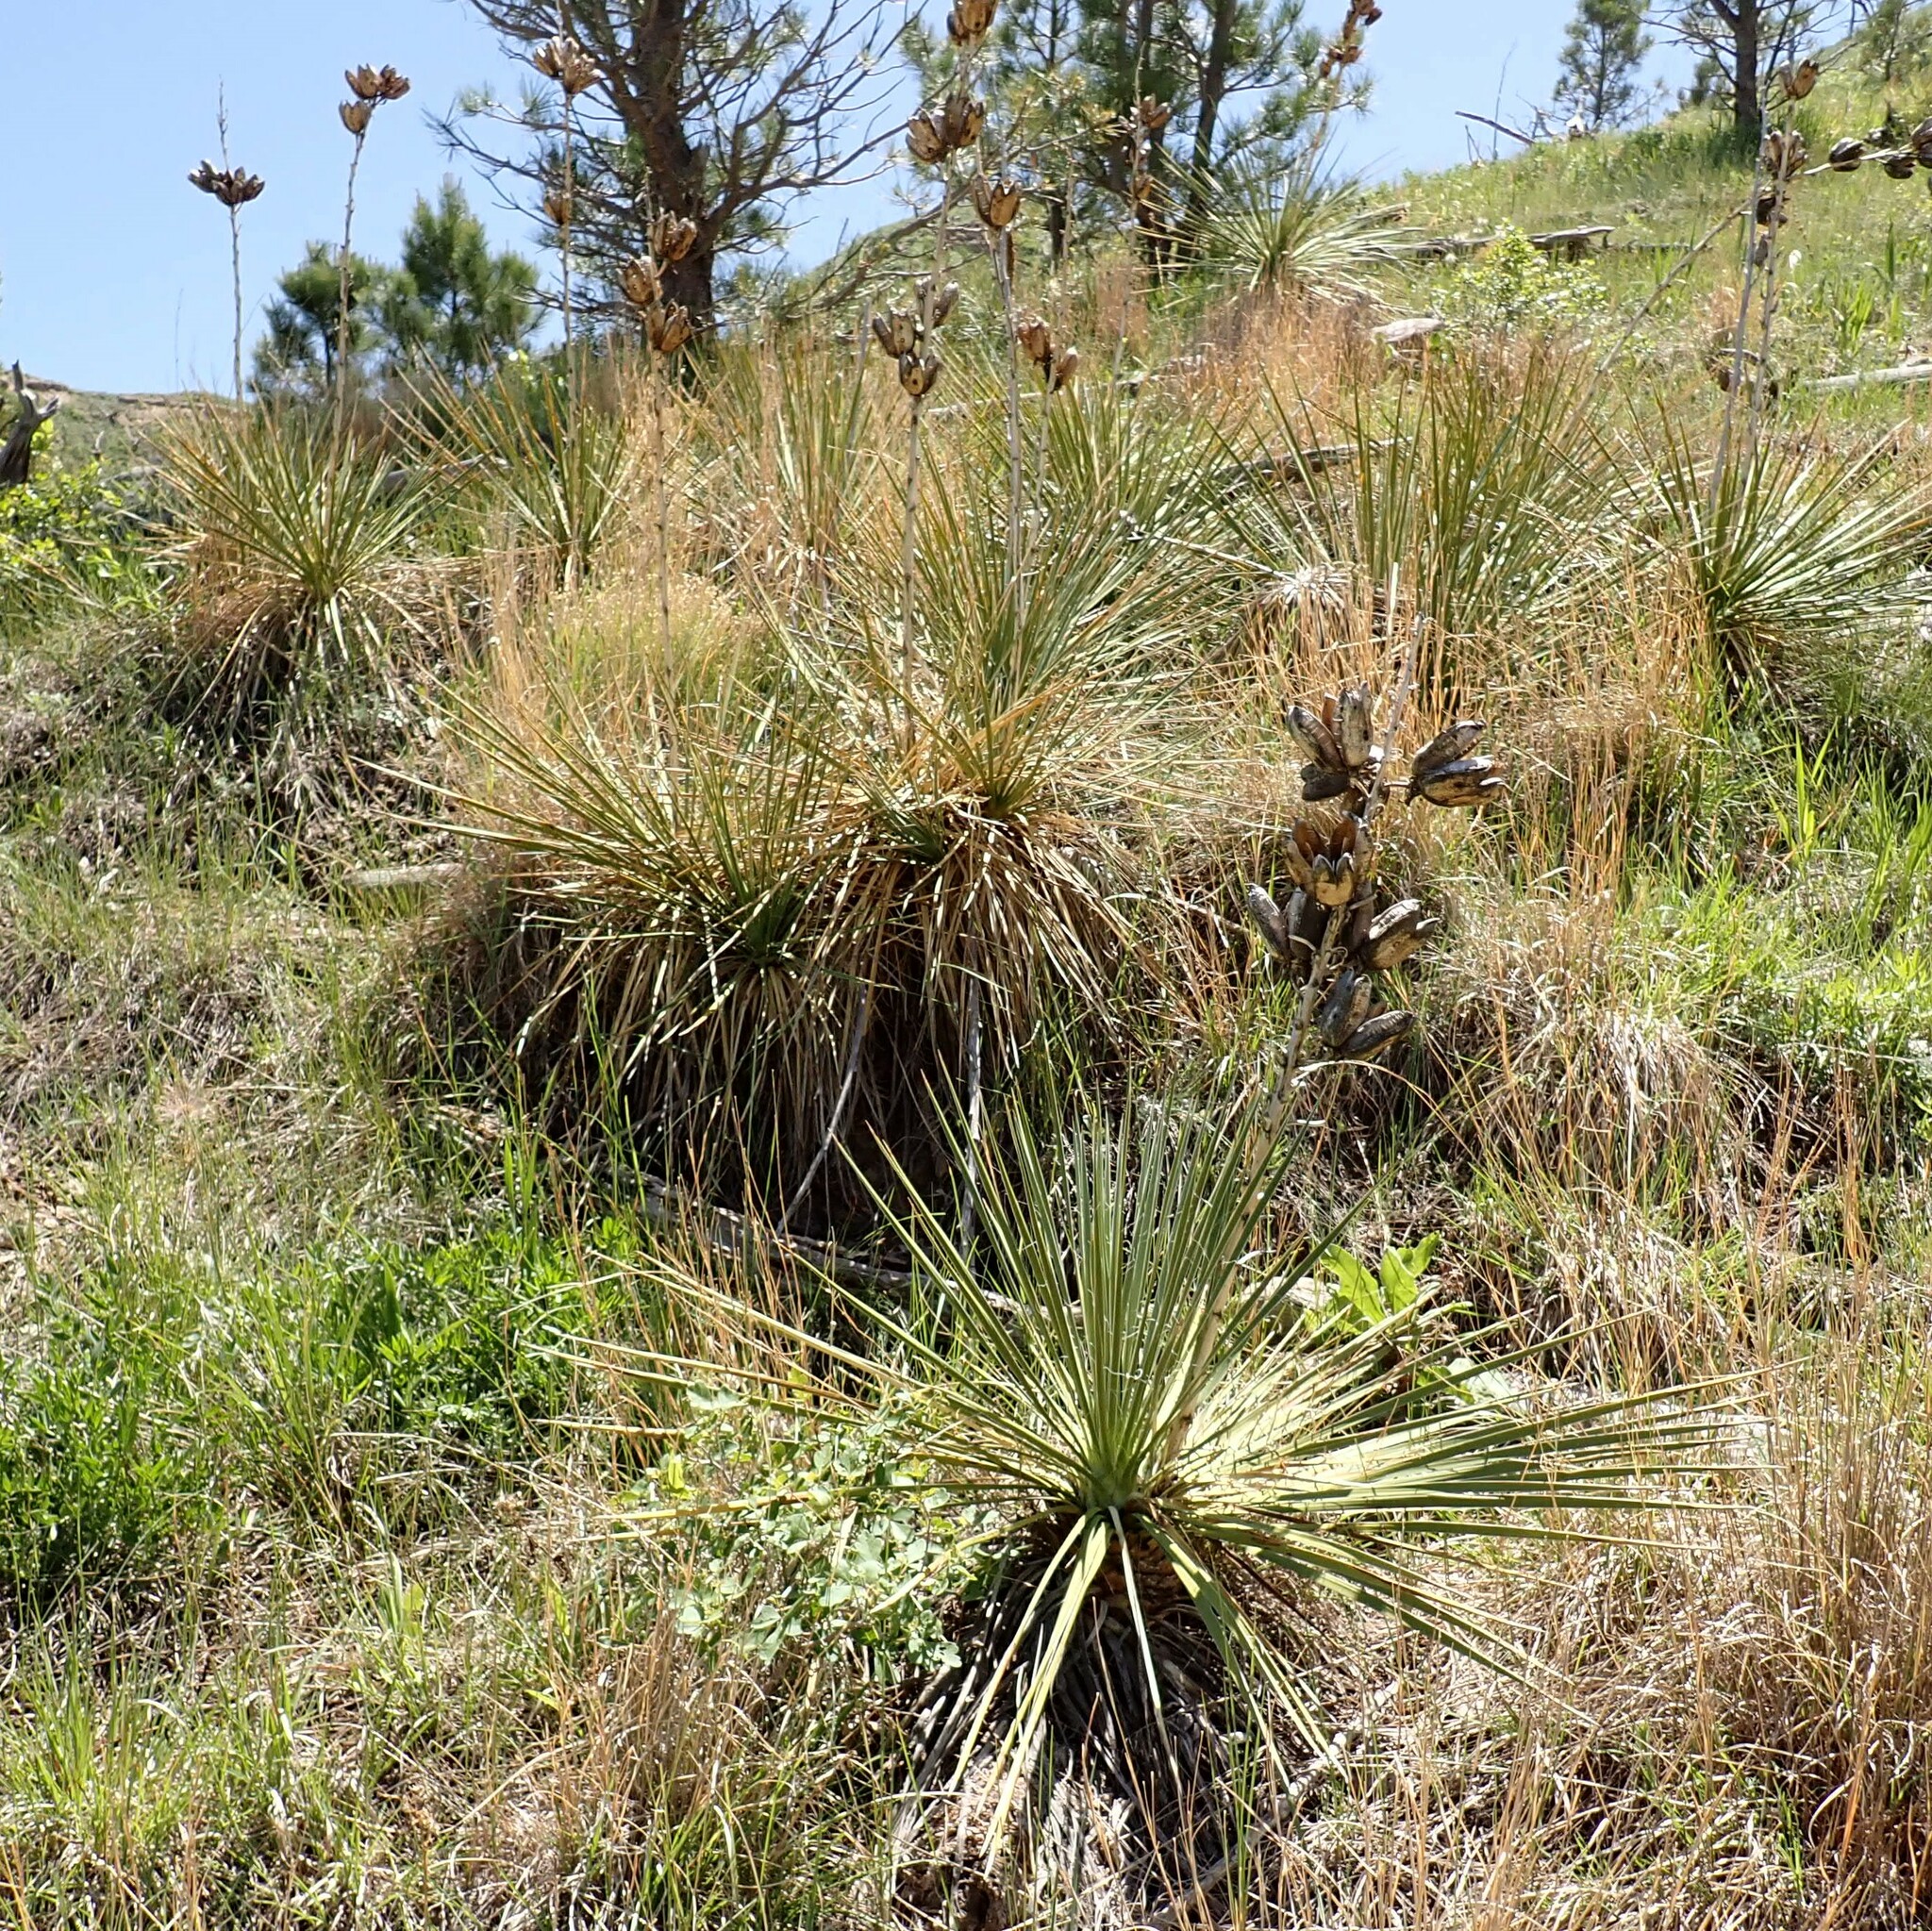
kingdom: Plantae
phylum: Tracheophyta
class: Liliopsida
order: Asparagales
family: Asparagaceae
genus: Yucca
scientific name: Yucca glauca
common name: Great plains yucca
